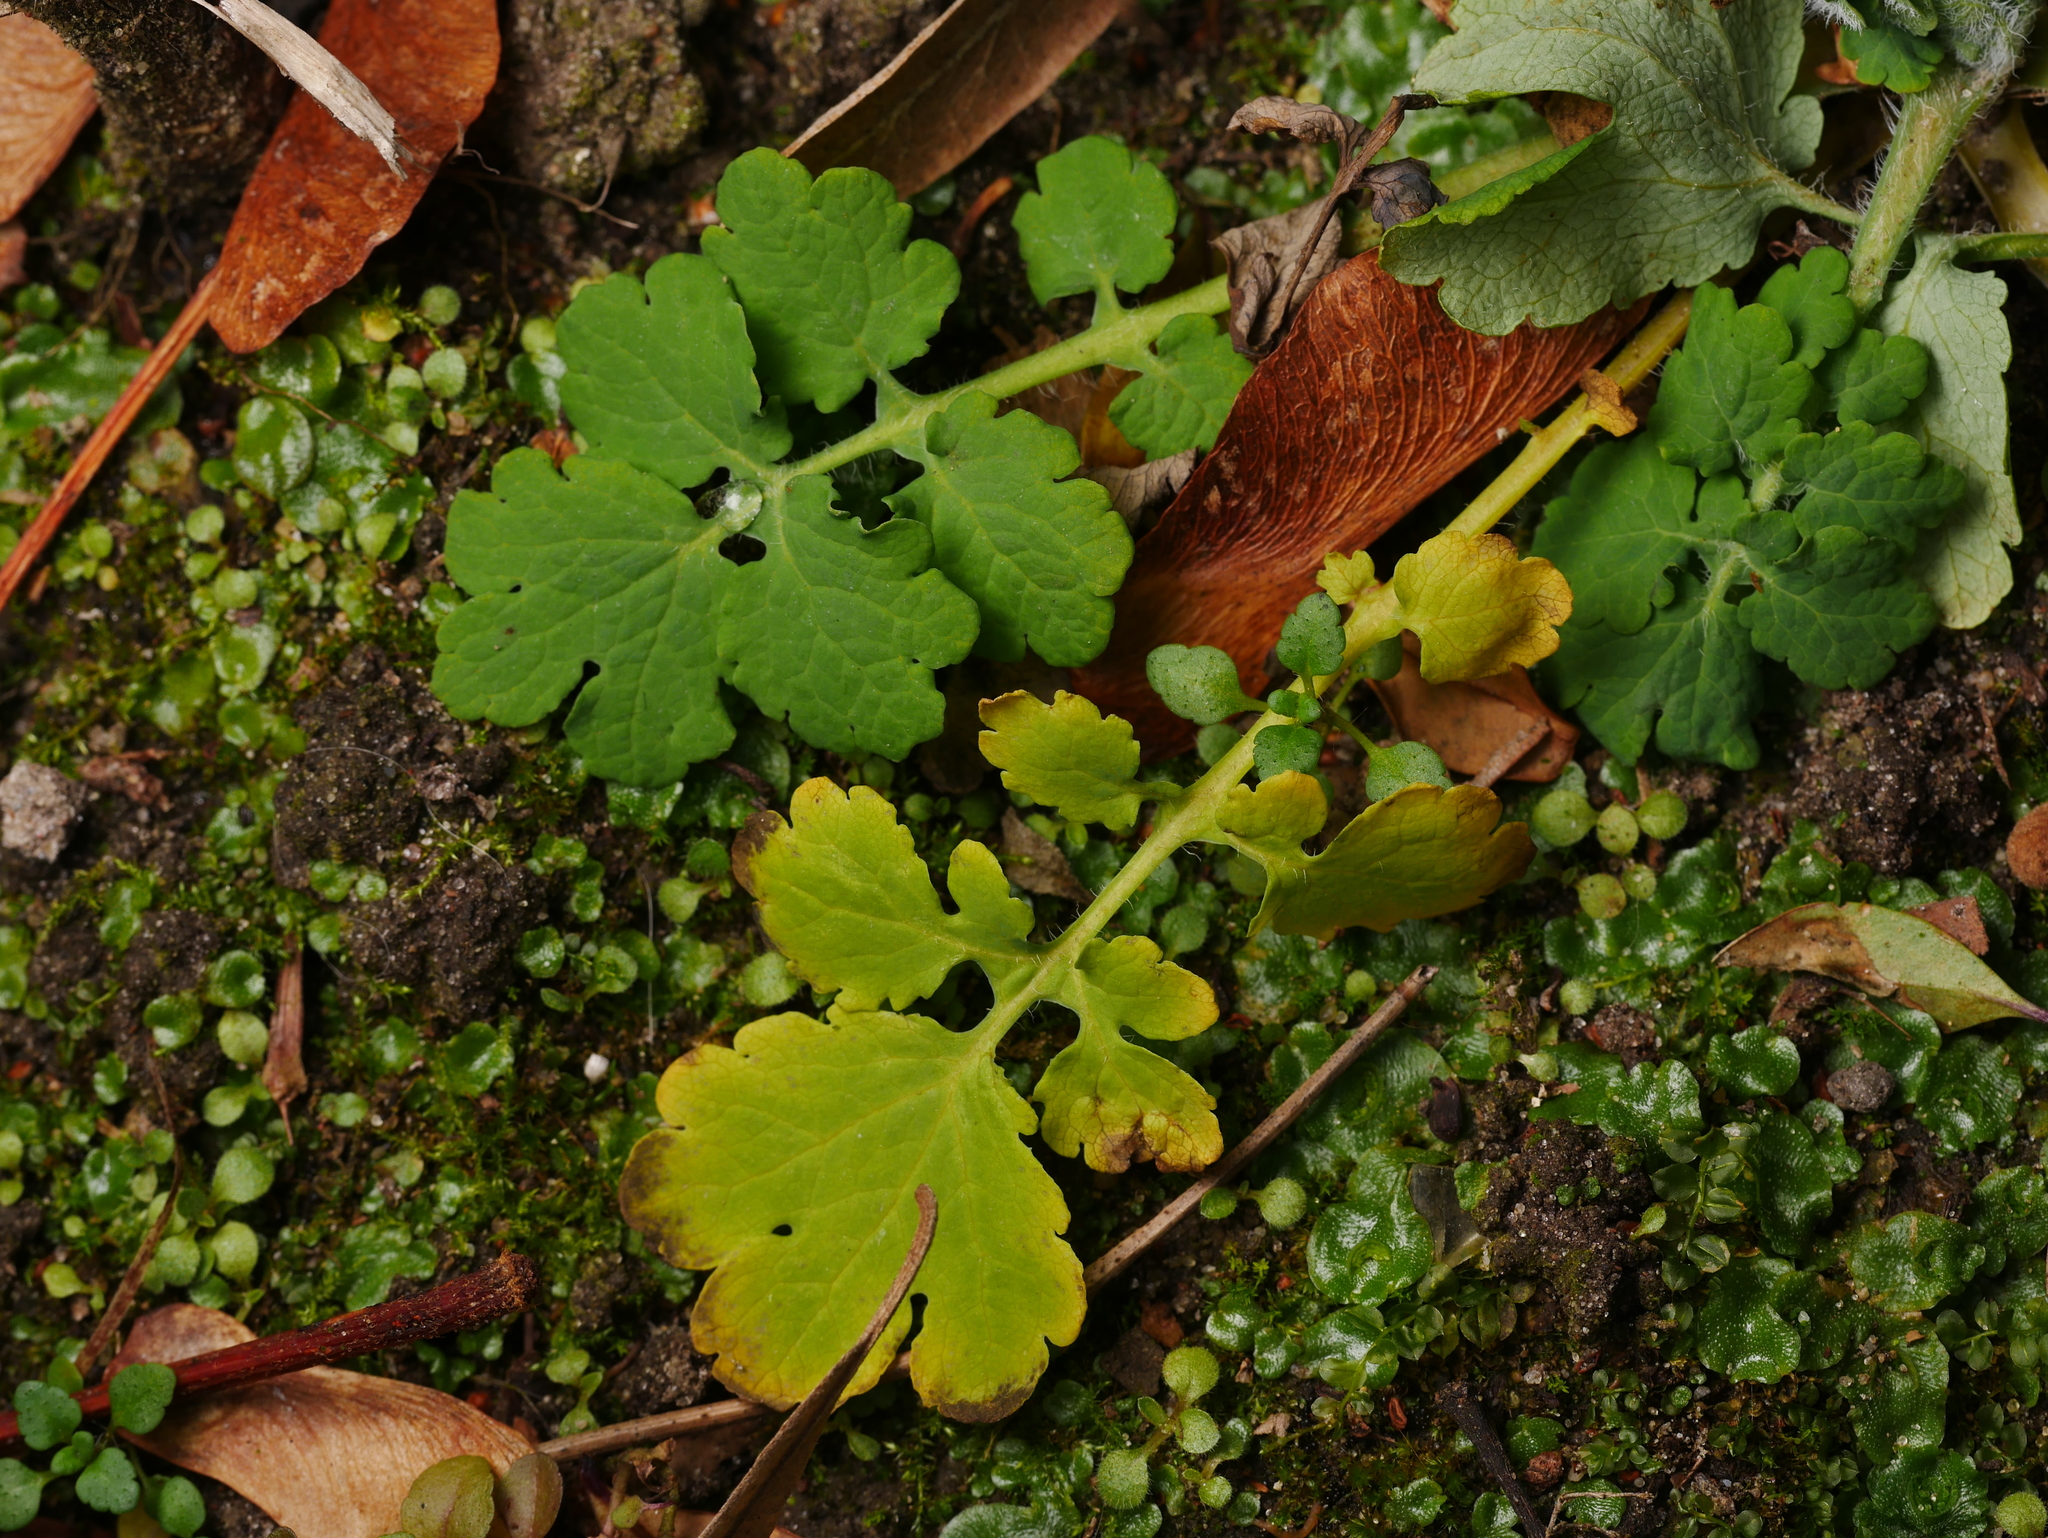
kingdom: Plantae
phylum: Tracheophyta
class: Magnoliopsida
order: Ranunculales
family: Papaveraceae
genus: Chelidonium
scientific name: Chelidonium majus
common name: Greater celandine
